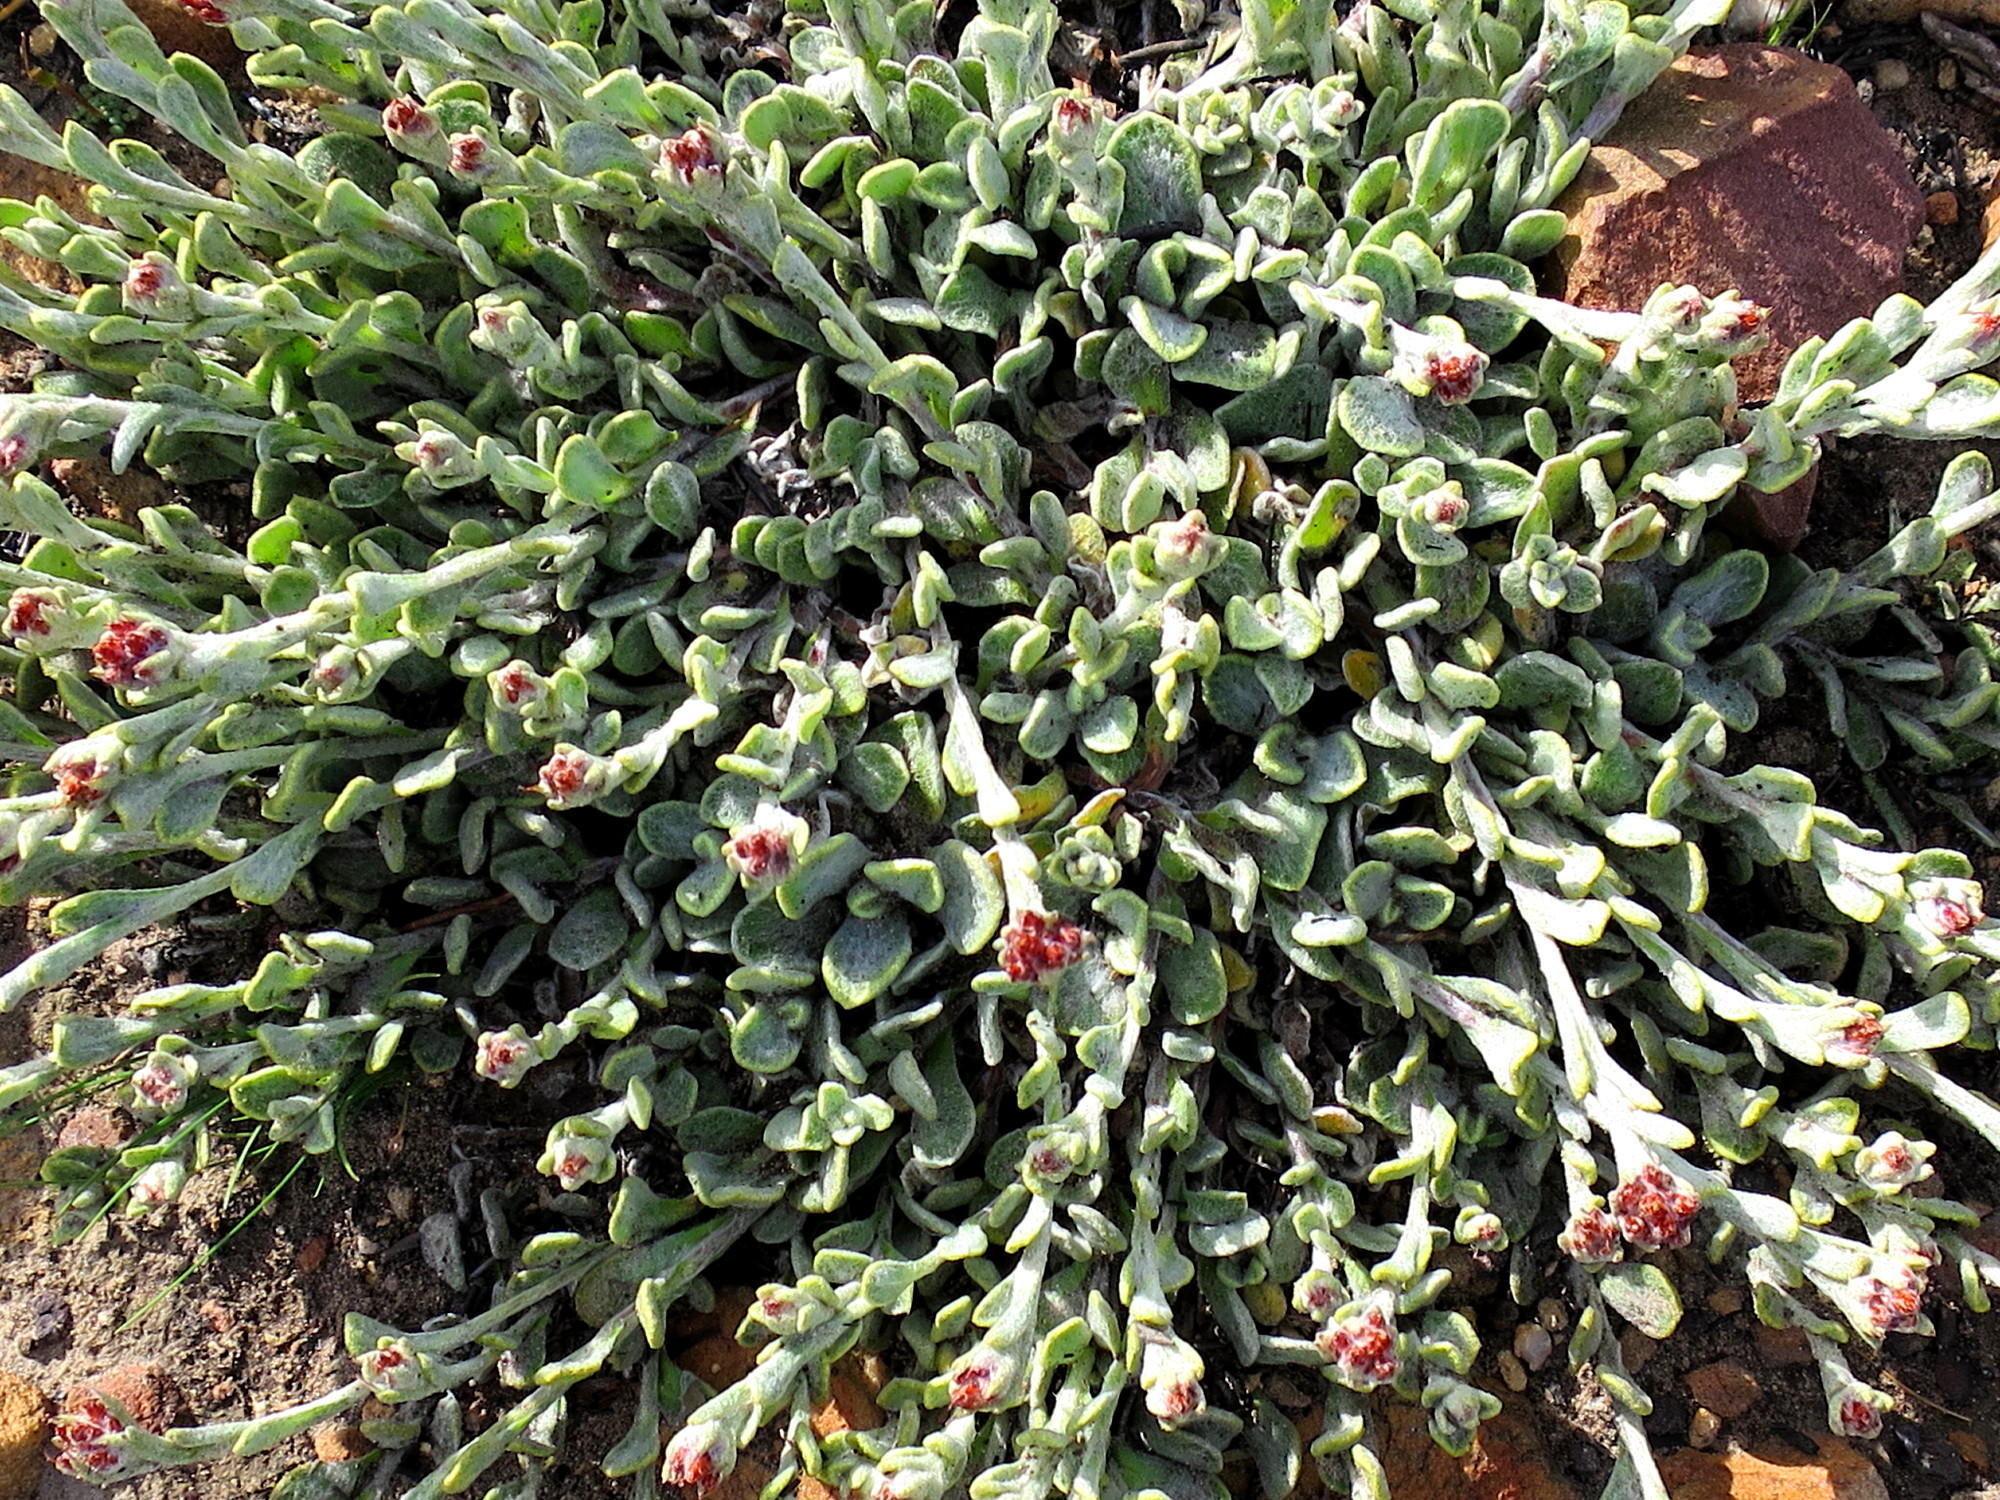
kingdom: Plantae
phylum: Tracheophyta
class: Magnoliopsida
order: Asterales
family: Asteraceae
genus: Helichrysum
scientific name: Helichrysum spiralepis
